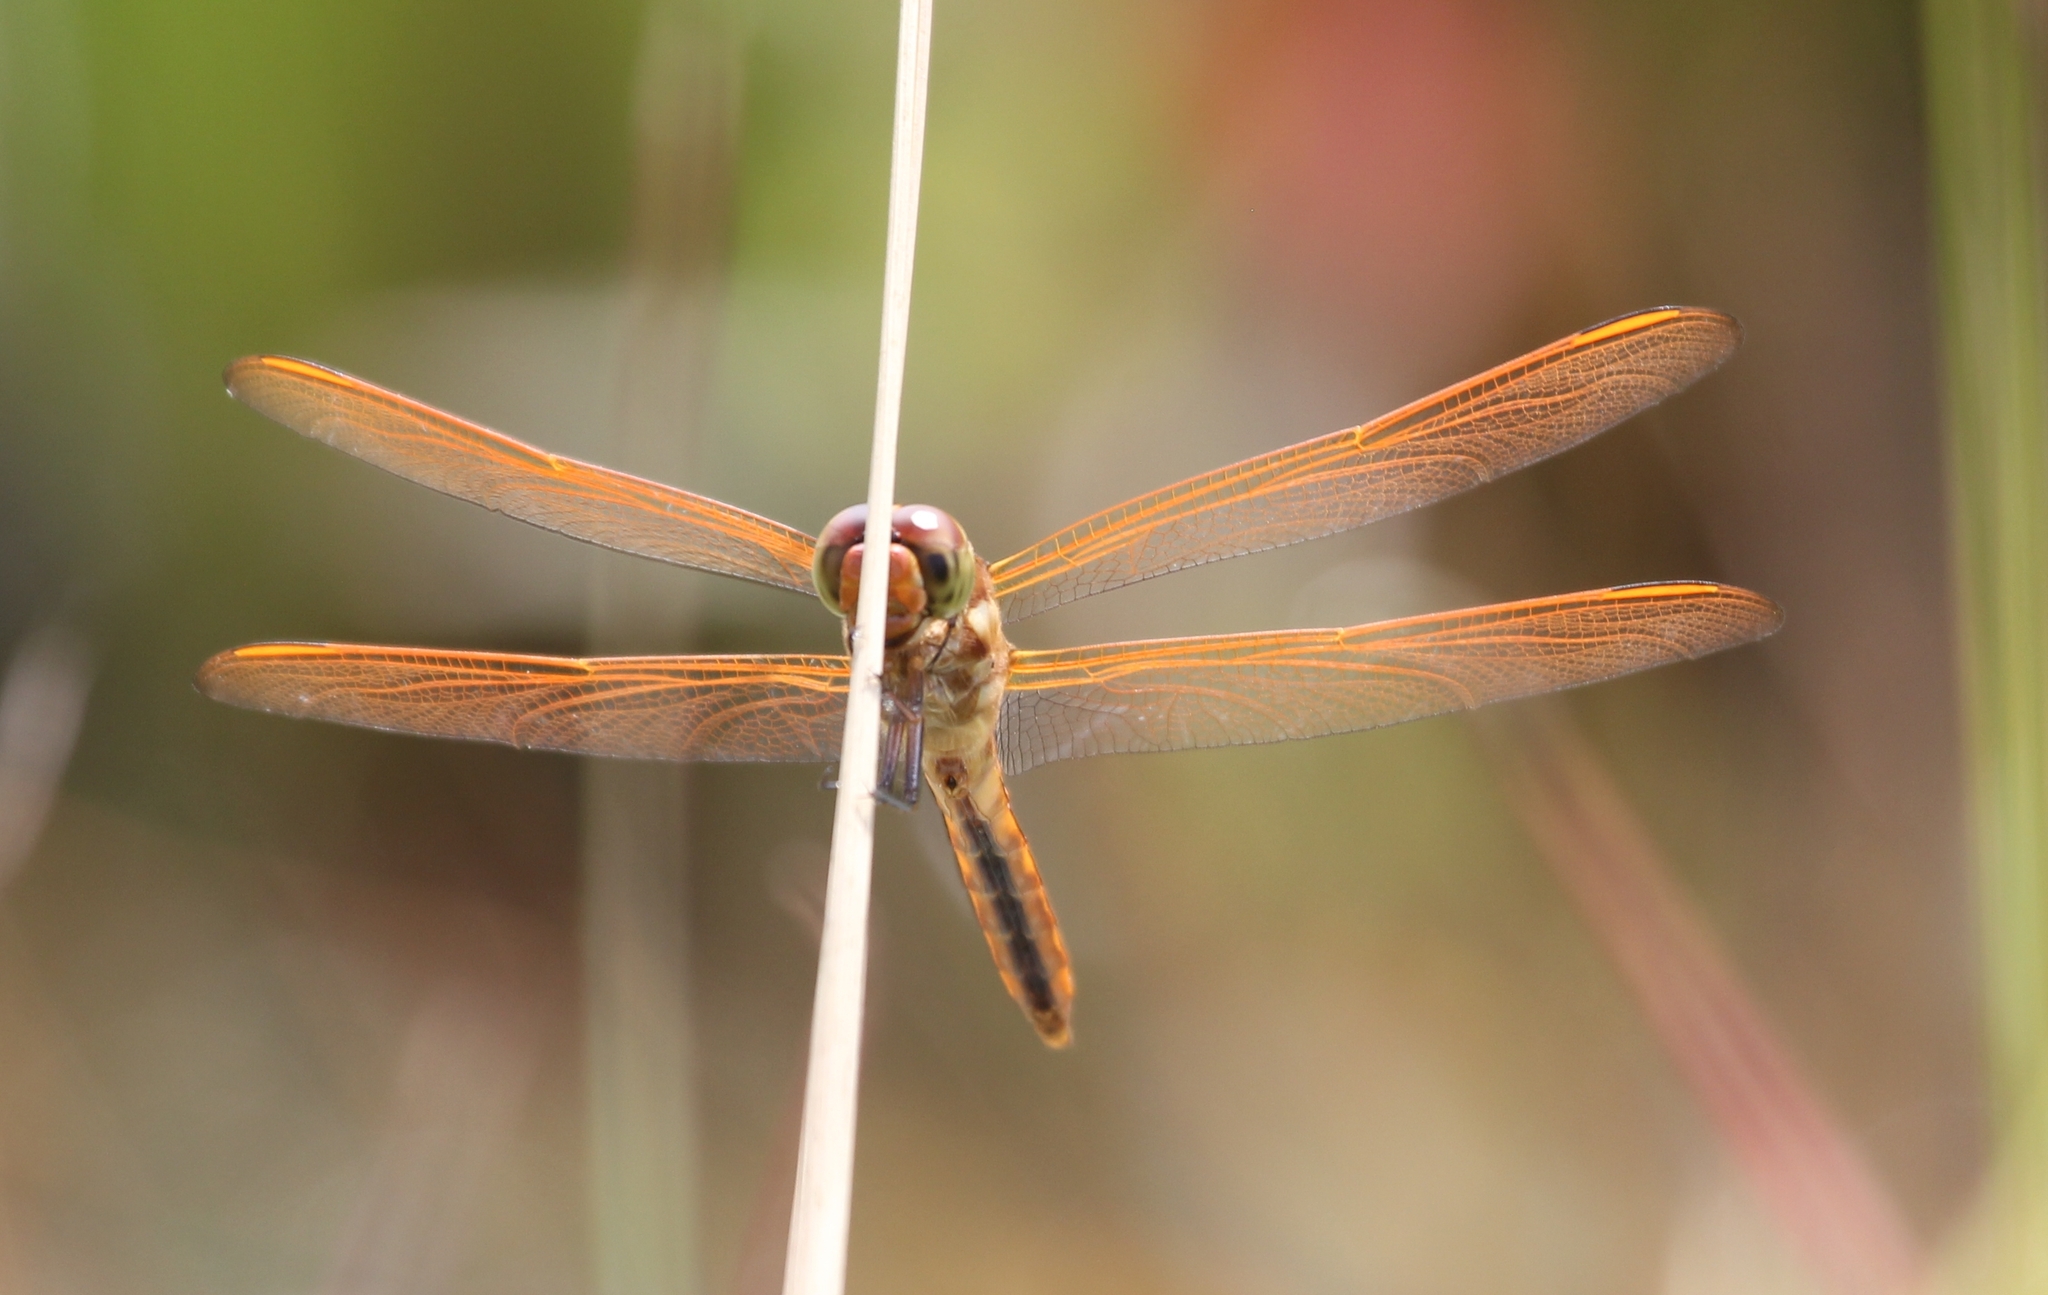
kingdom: Animalia
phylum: Arthropoda
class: Insecta
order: Odonata
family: Libellulidae
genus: Libellula
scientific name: Libellula auripennis
